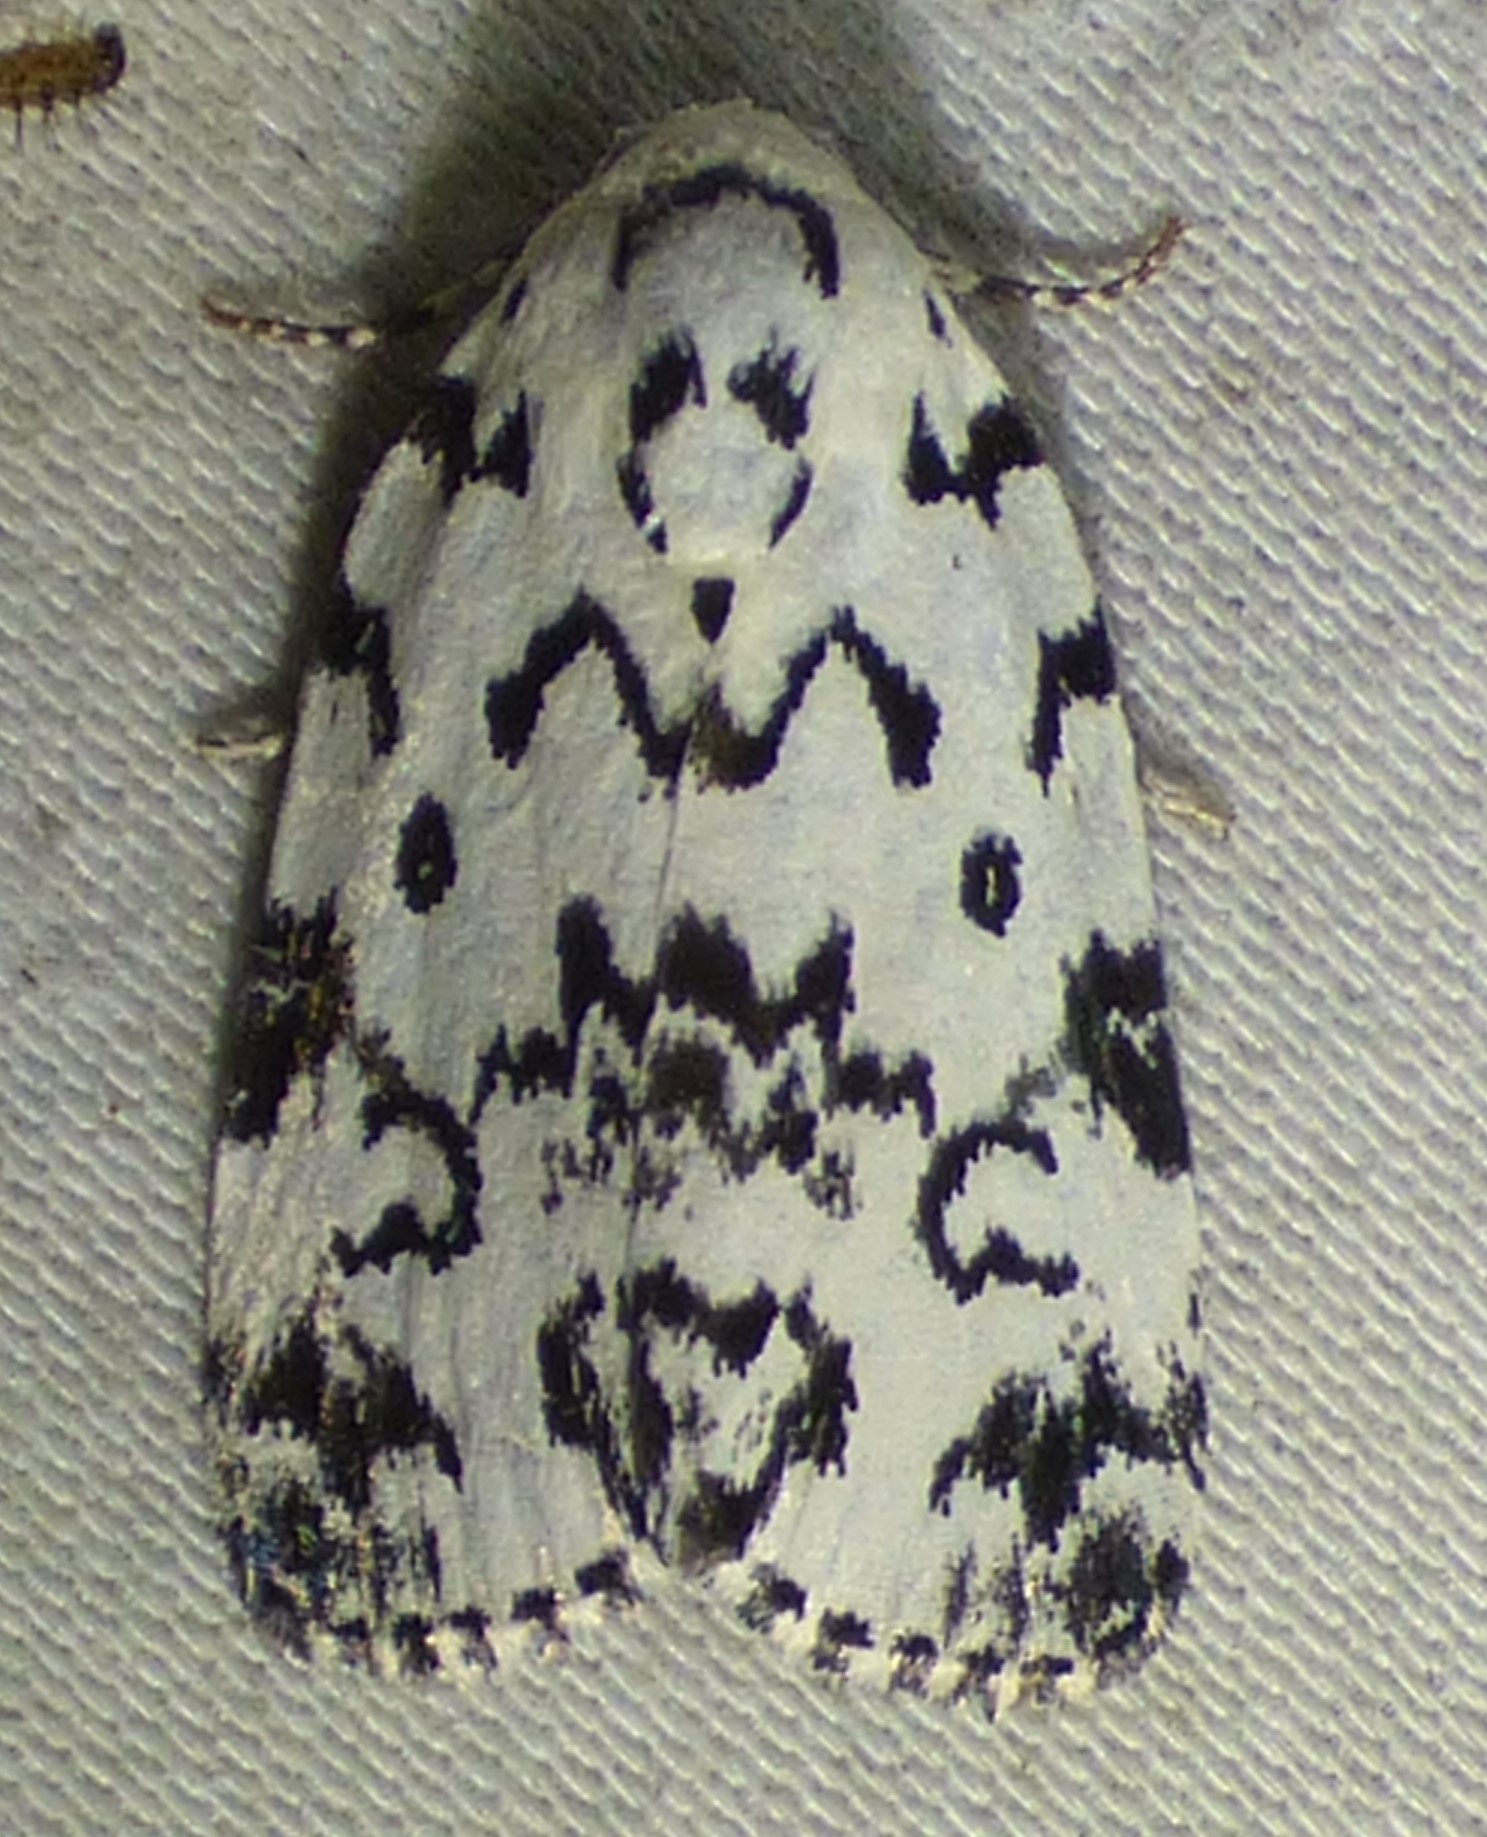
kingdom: Animalia
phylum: Arthropoda
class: Insecta
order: Lepidoptera
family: Noctuidae
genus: Polygrammate
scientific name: Polygrammate hebraeicum
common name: Hebrew moth
